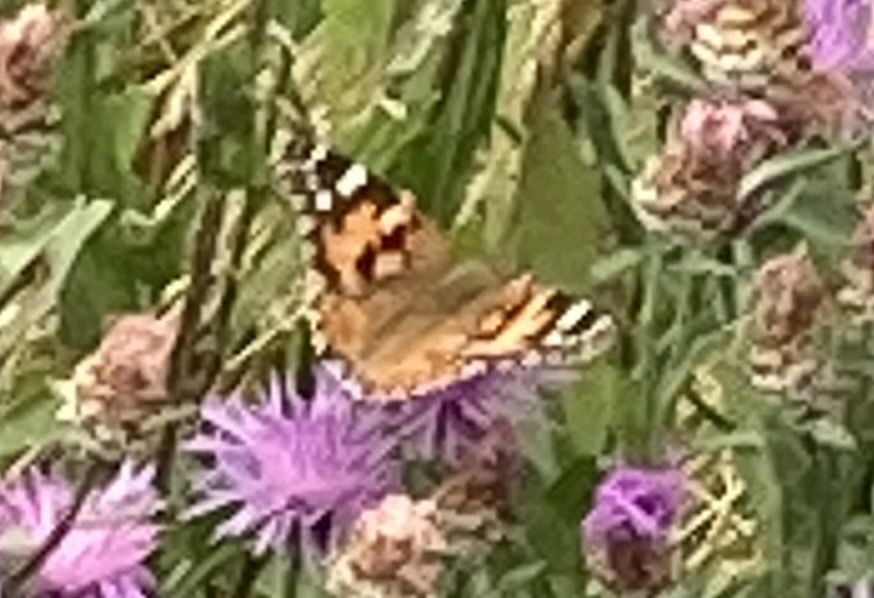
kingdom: Animalia
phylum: Arthropoda
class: Insecta
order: Lepidoptera
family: Nymphalidae
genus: Vanessa
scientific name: Vanessa cardui
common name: Painted lady
